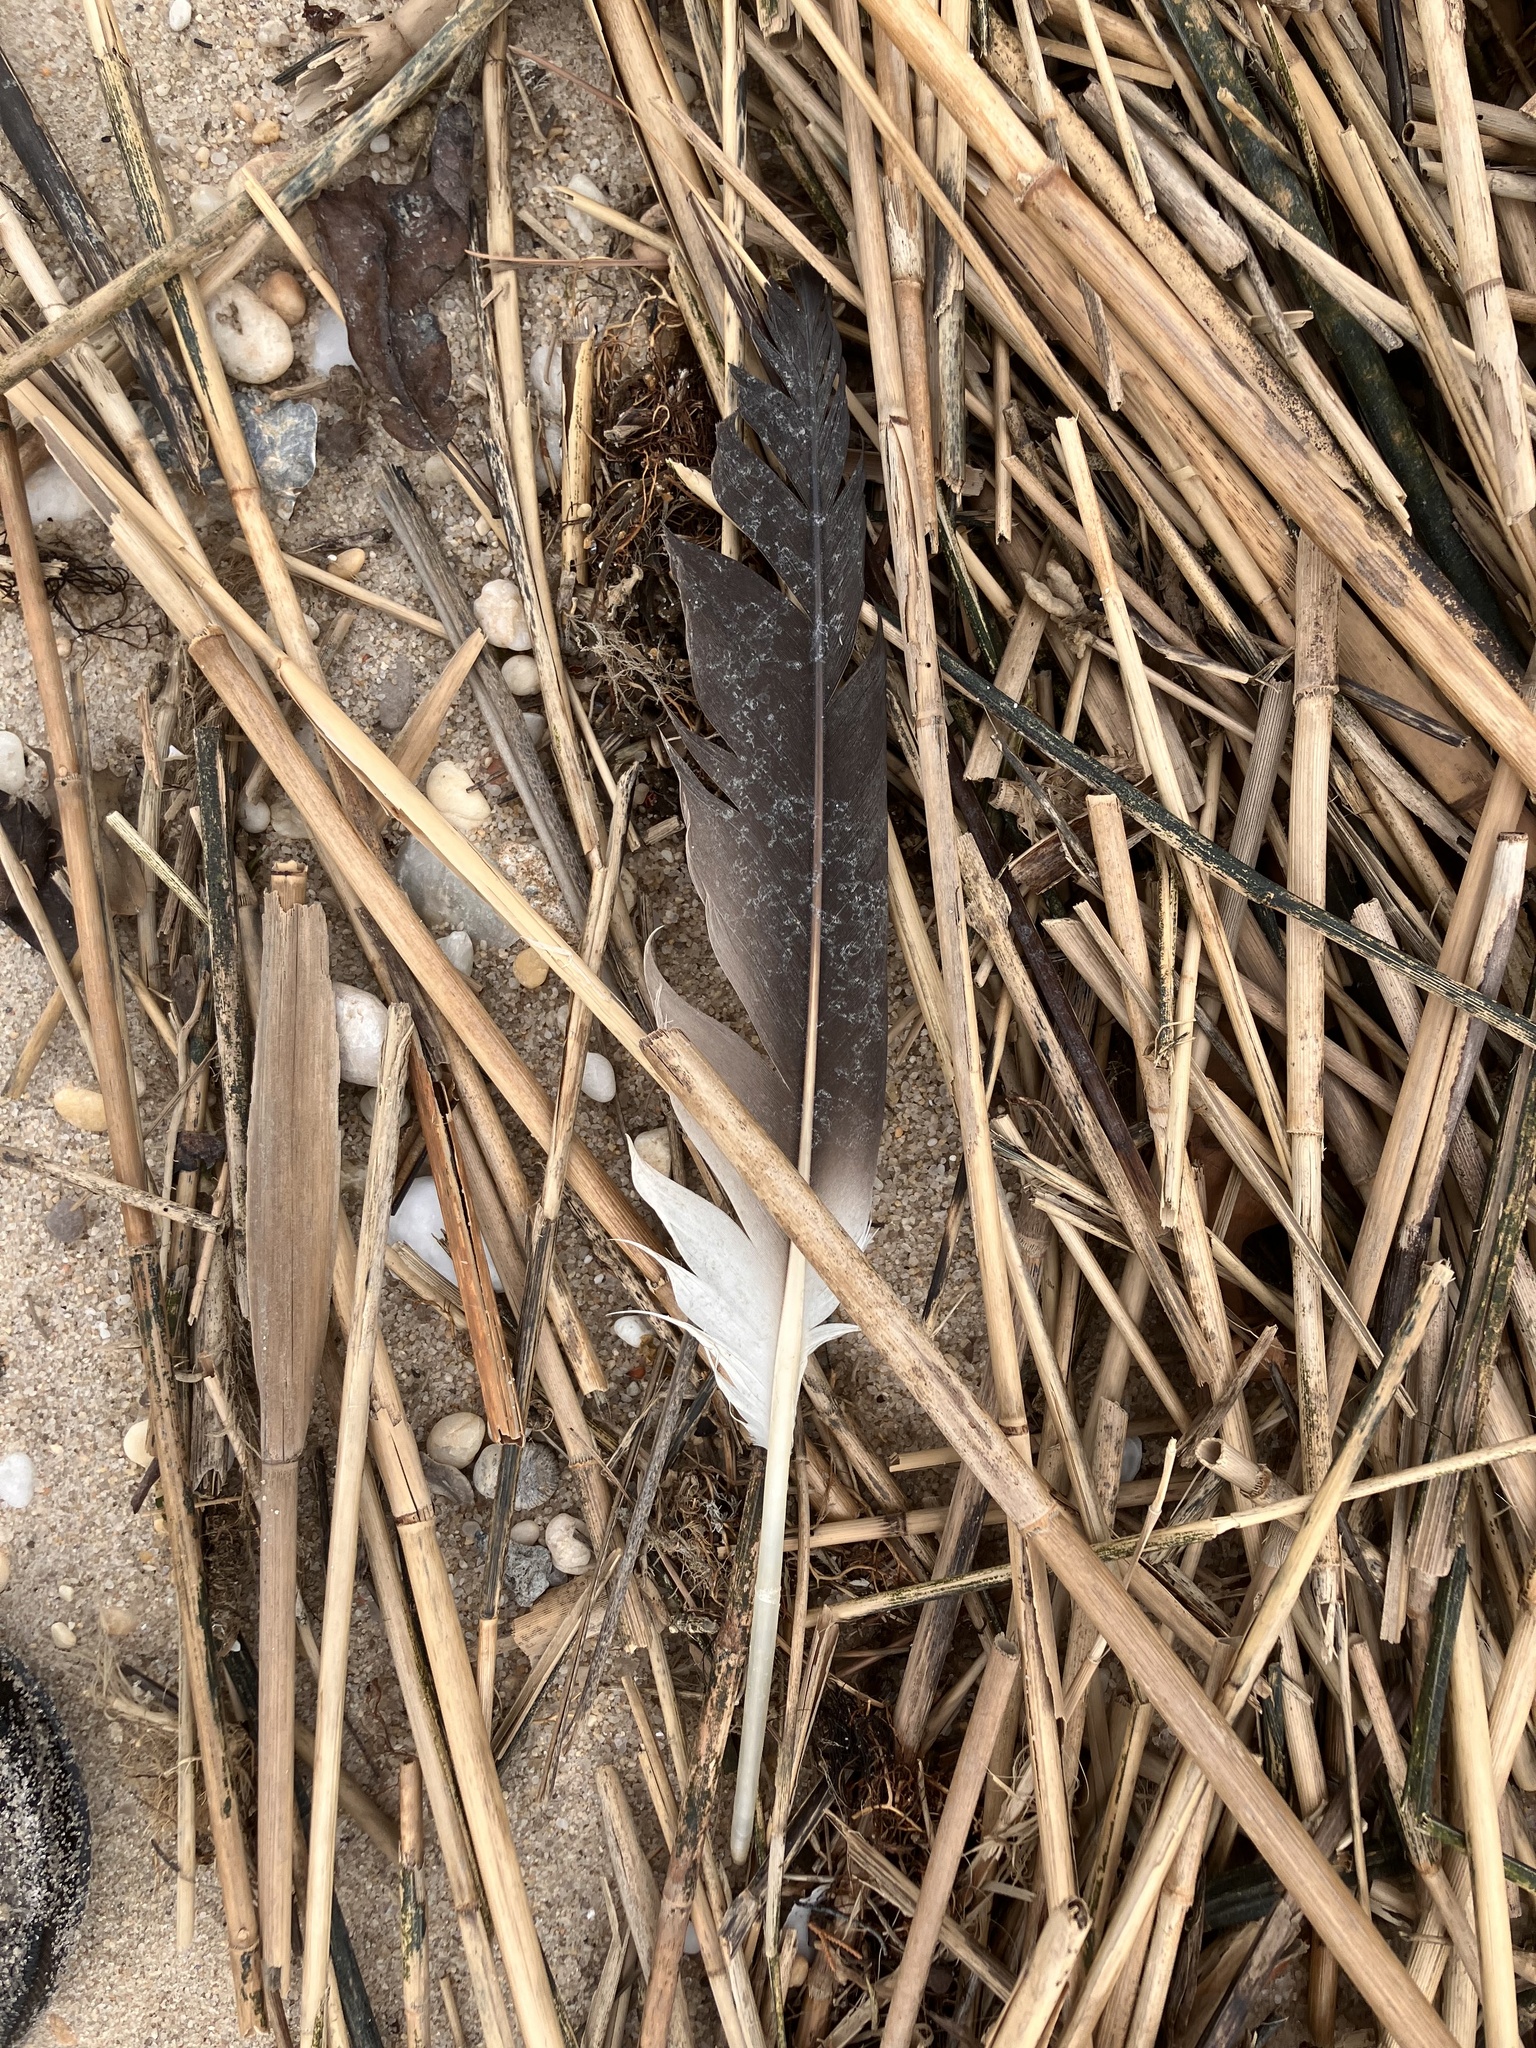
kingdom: Animalia
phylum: Chordata
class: Aves
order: Suliformes
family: Sulidae
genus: Morus
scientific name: Morus bassanus
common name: Northern gannet
